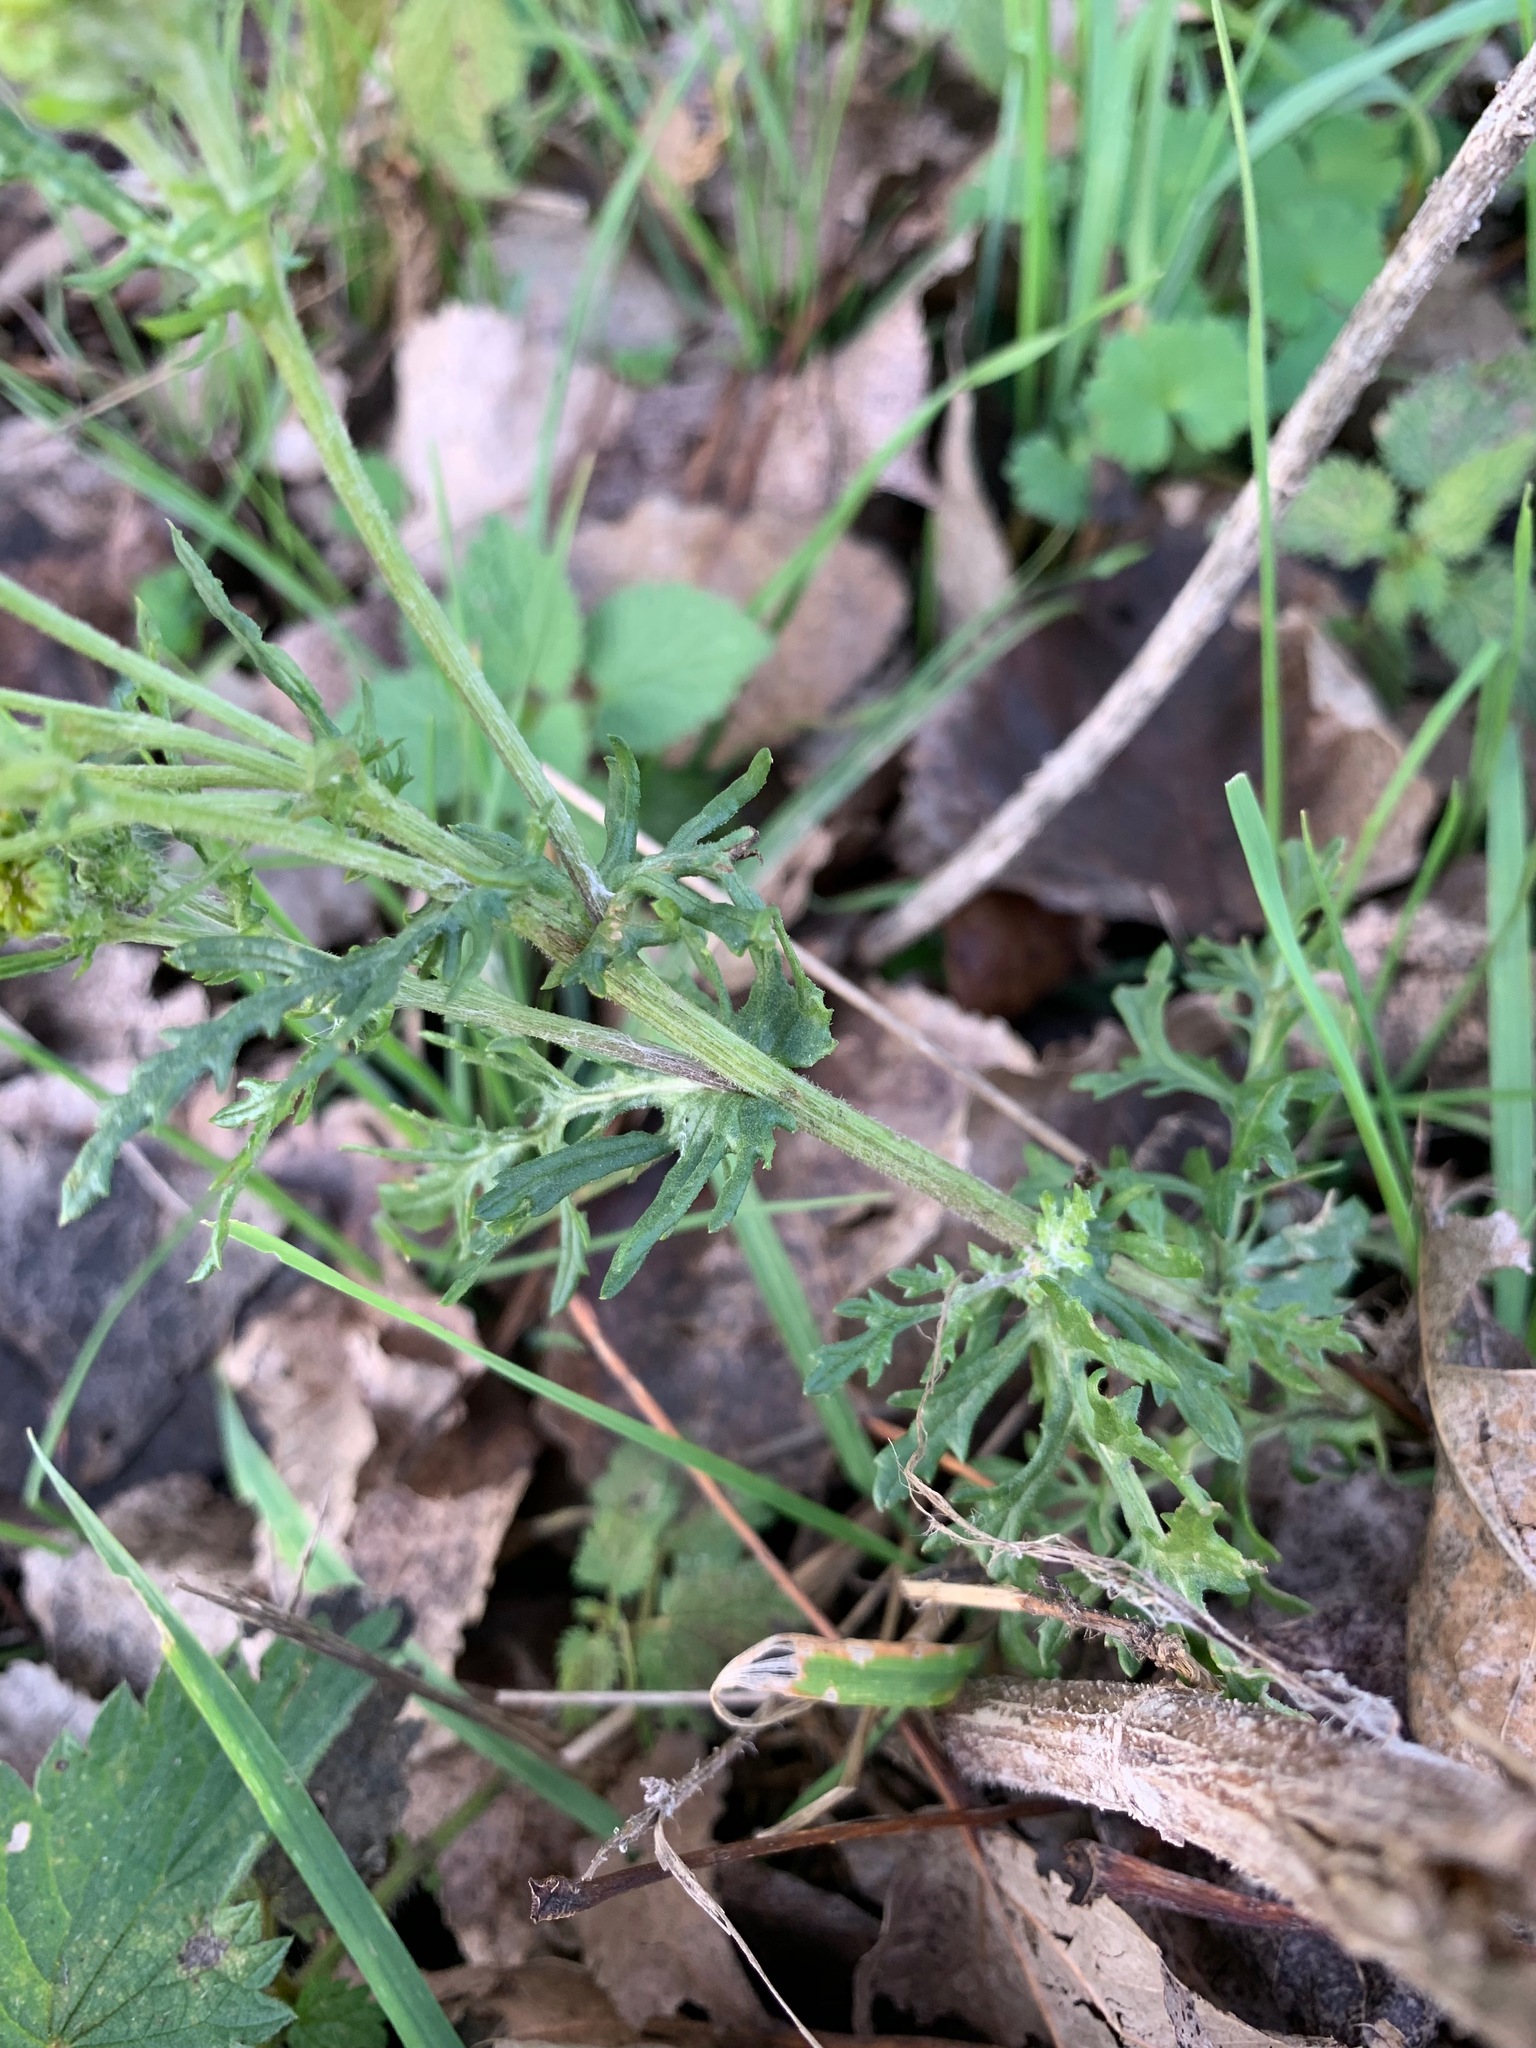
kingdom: Plantae
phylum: Tracheophyta
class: Magnoliopsida
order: Asterales
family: Asteraceae
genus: Jacobaea
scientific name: Jacobaea vulgaris
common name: Stinking willie
